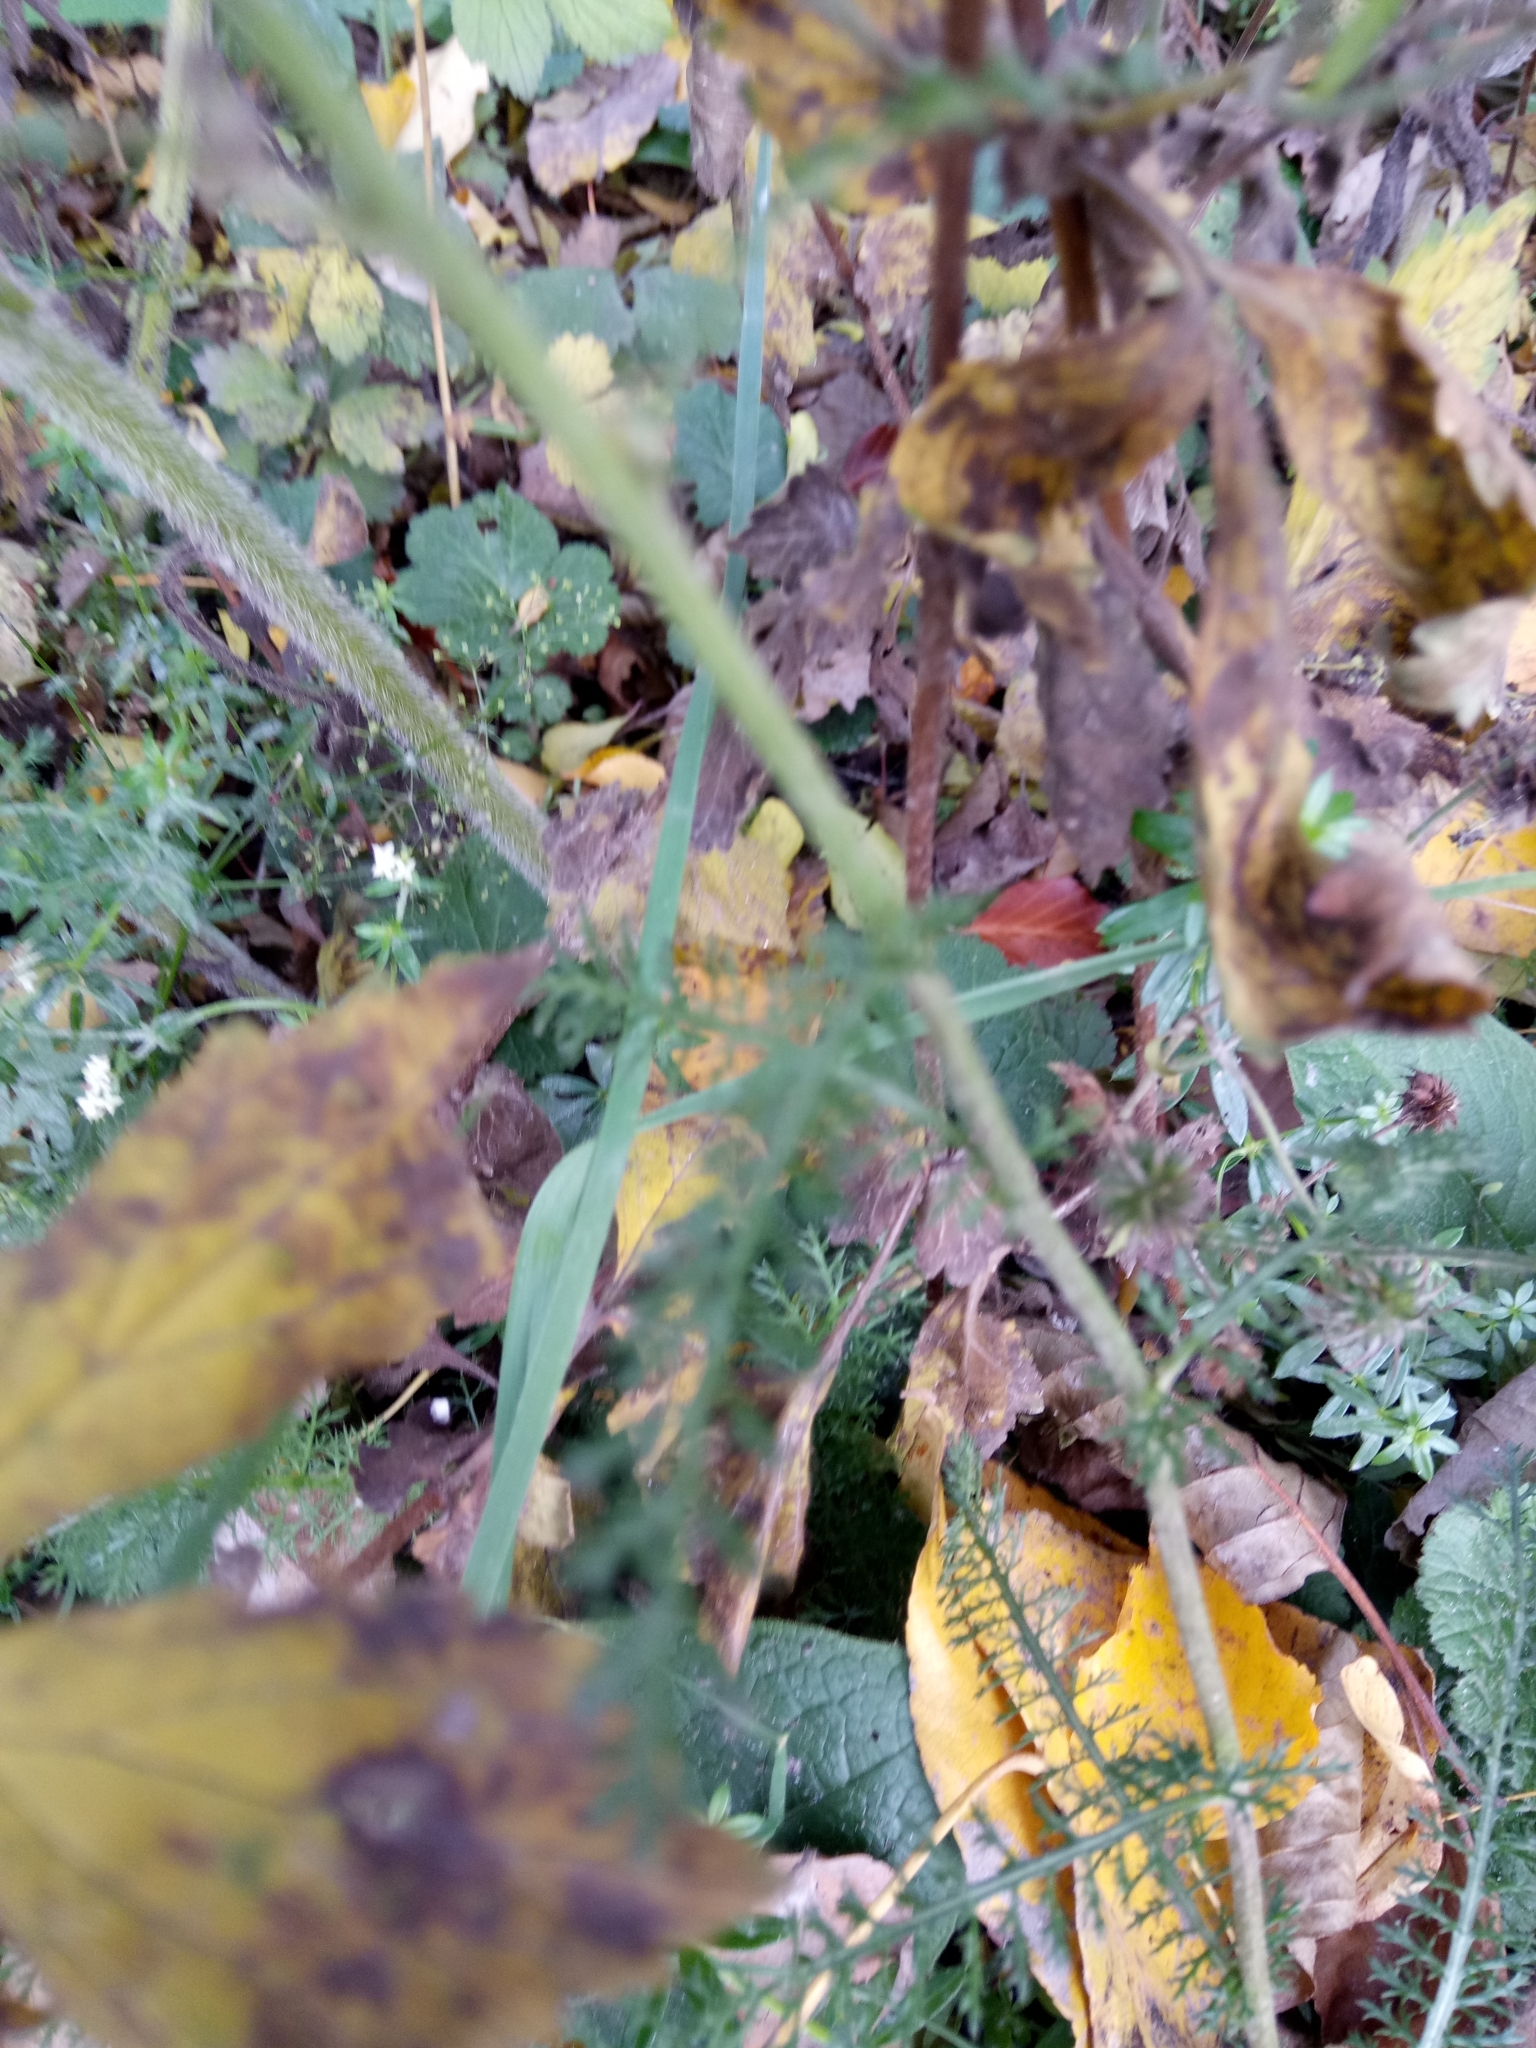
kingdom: Plantae
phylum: Tracheophyta
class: Magnoliopsida
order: Asterales
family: Asteraceae
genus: Achillea
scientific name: Achillea millefolium
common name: Yarrow
